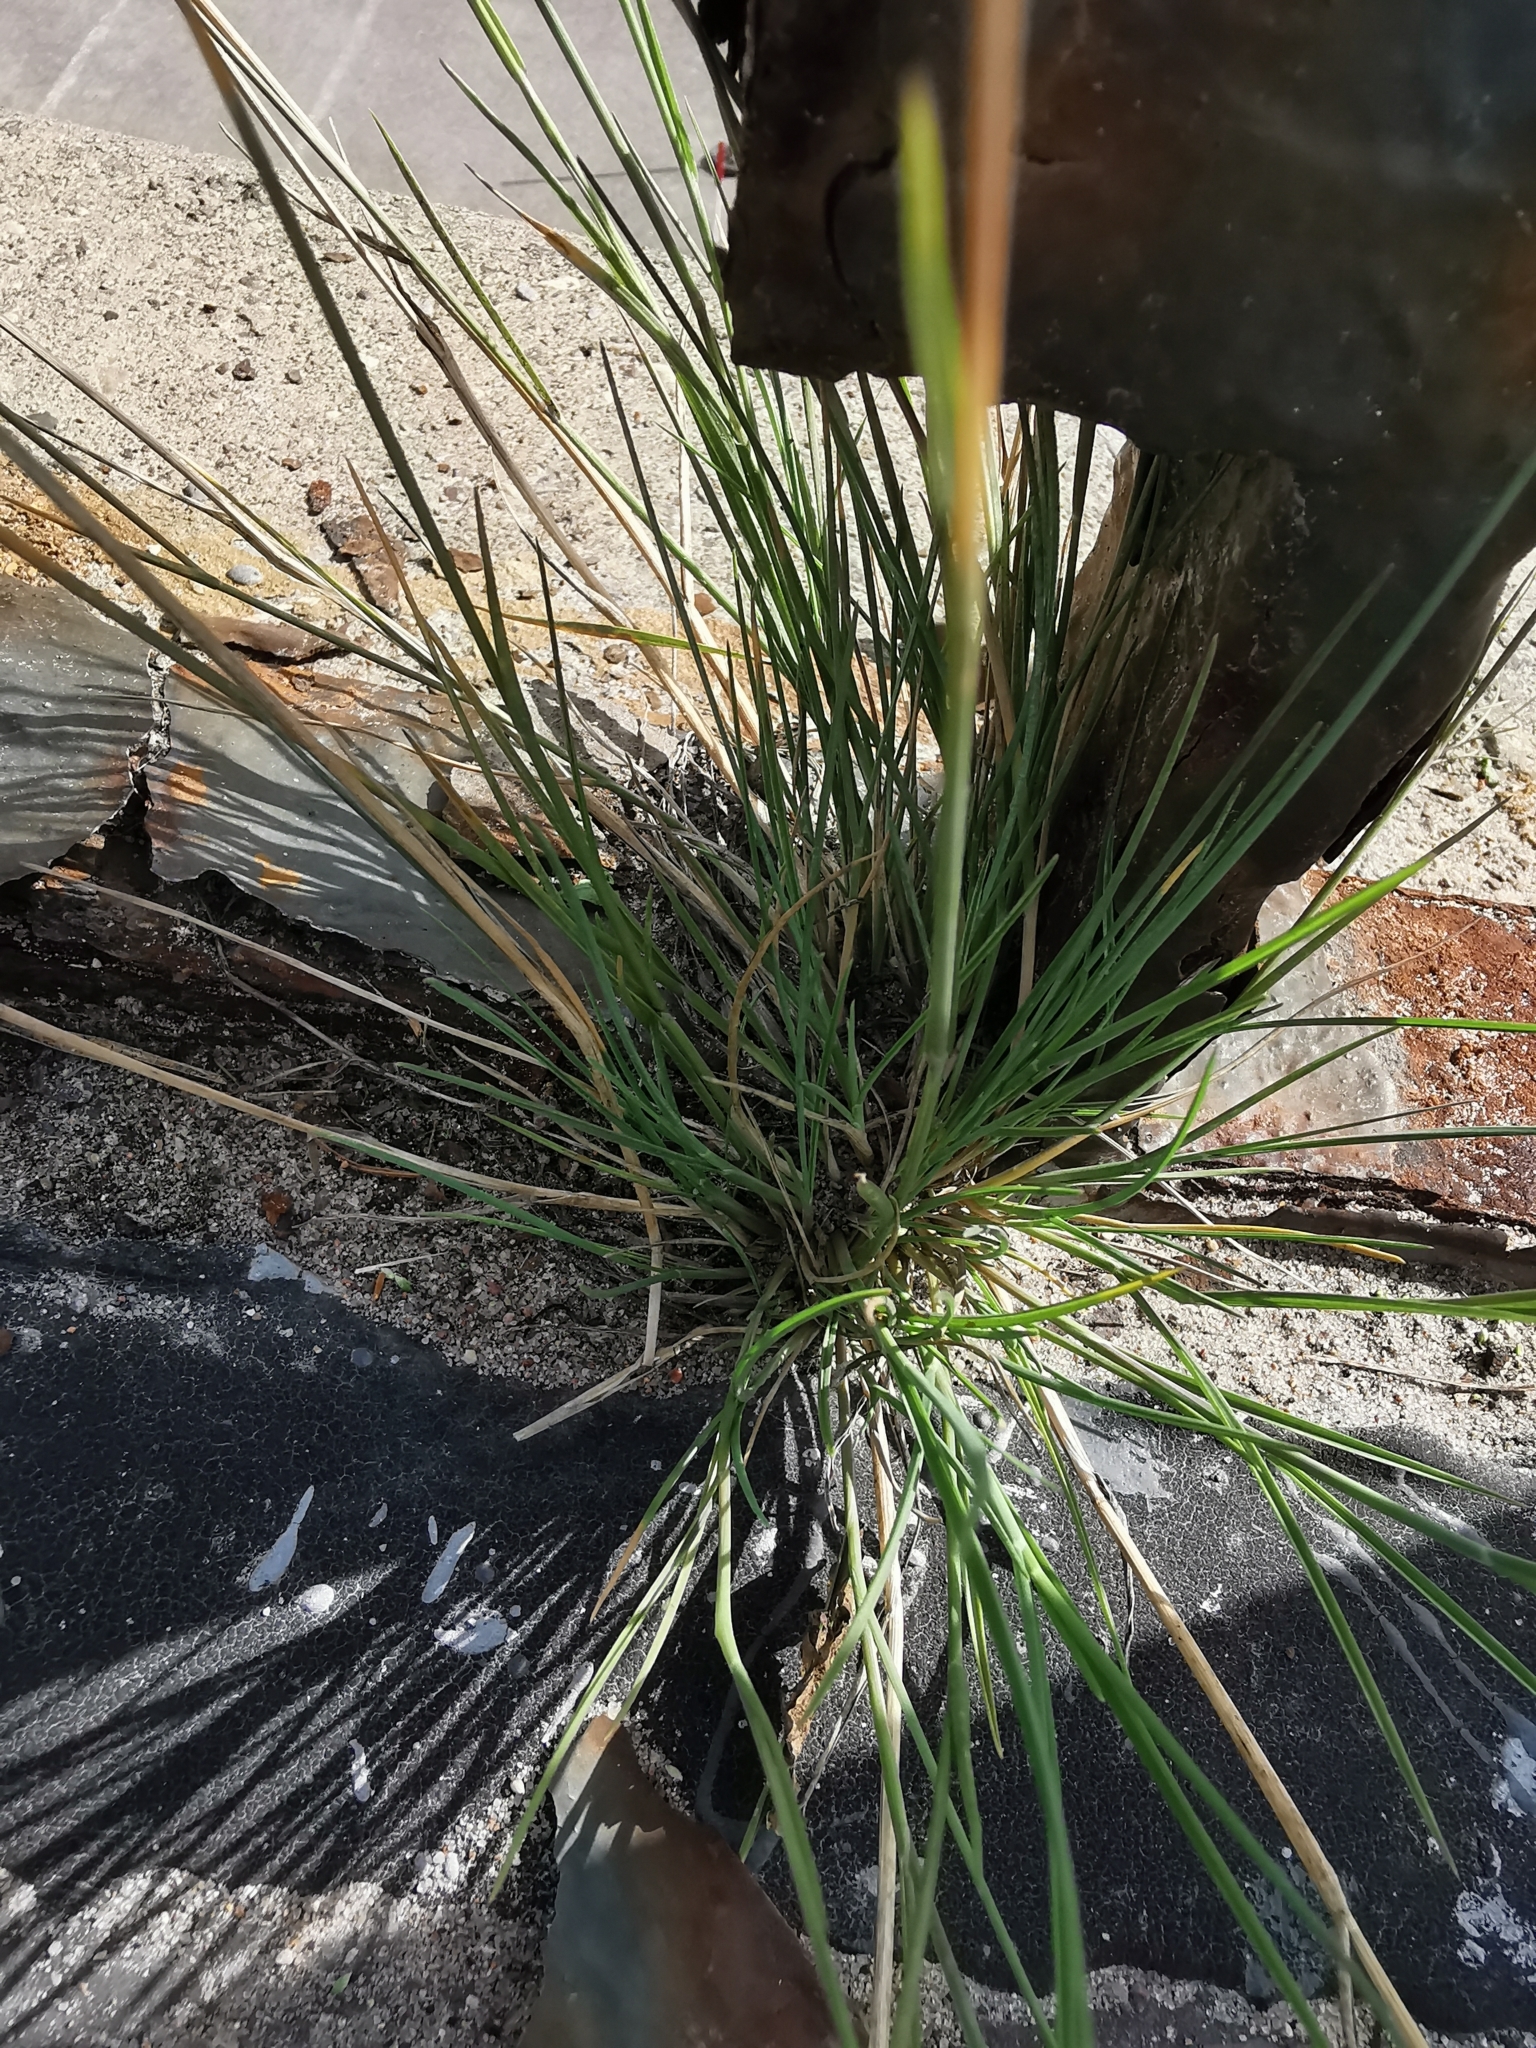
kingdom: Plantae
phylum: Tracheophyta
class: Liliopsida
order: Poales
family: Poaceae
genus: Puccinellia
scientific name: Puccinellia distans
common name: Weeping alkaligrass
